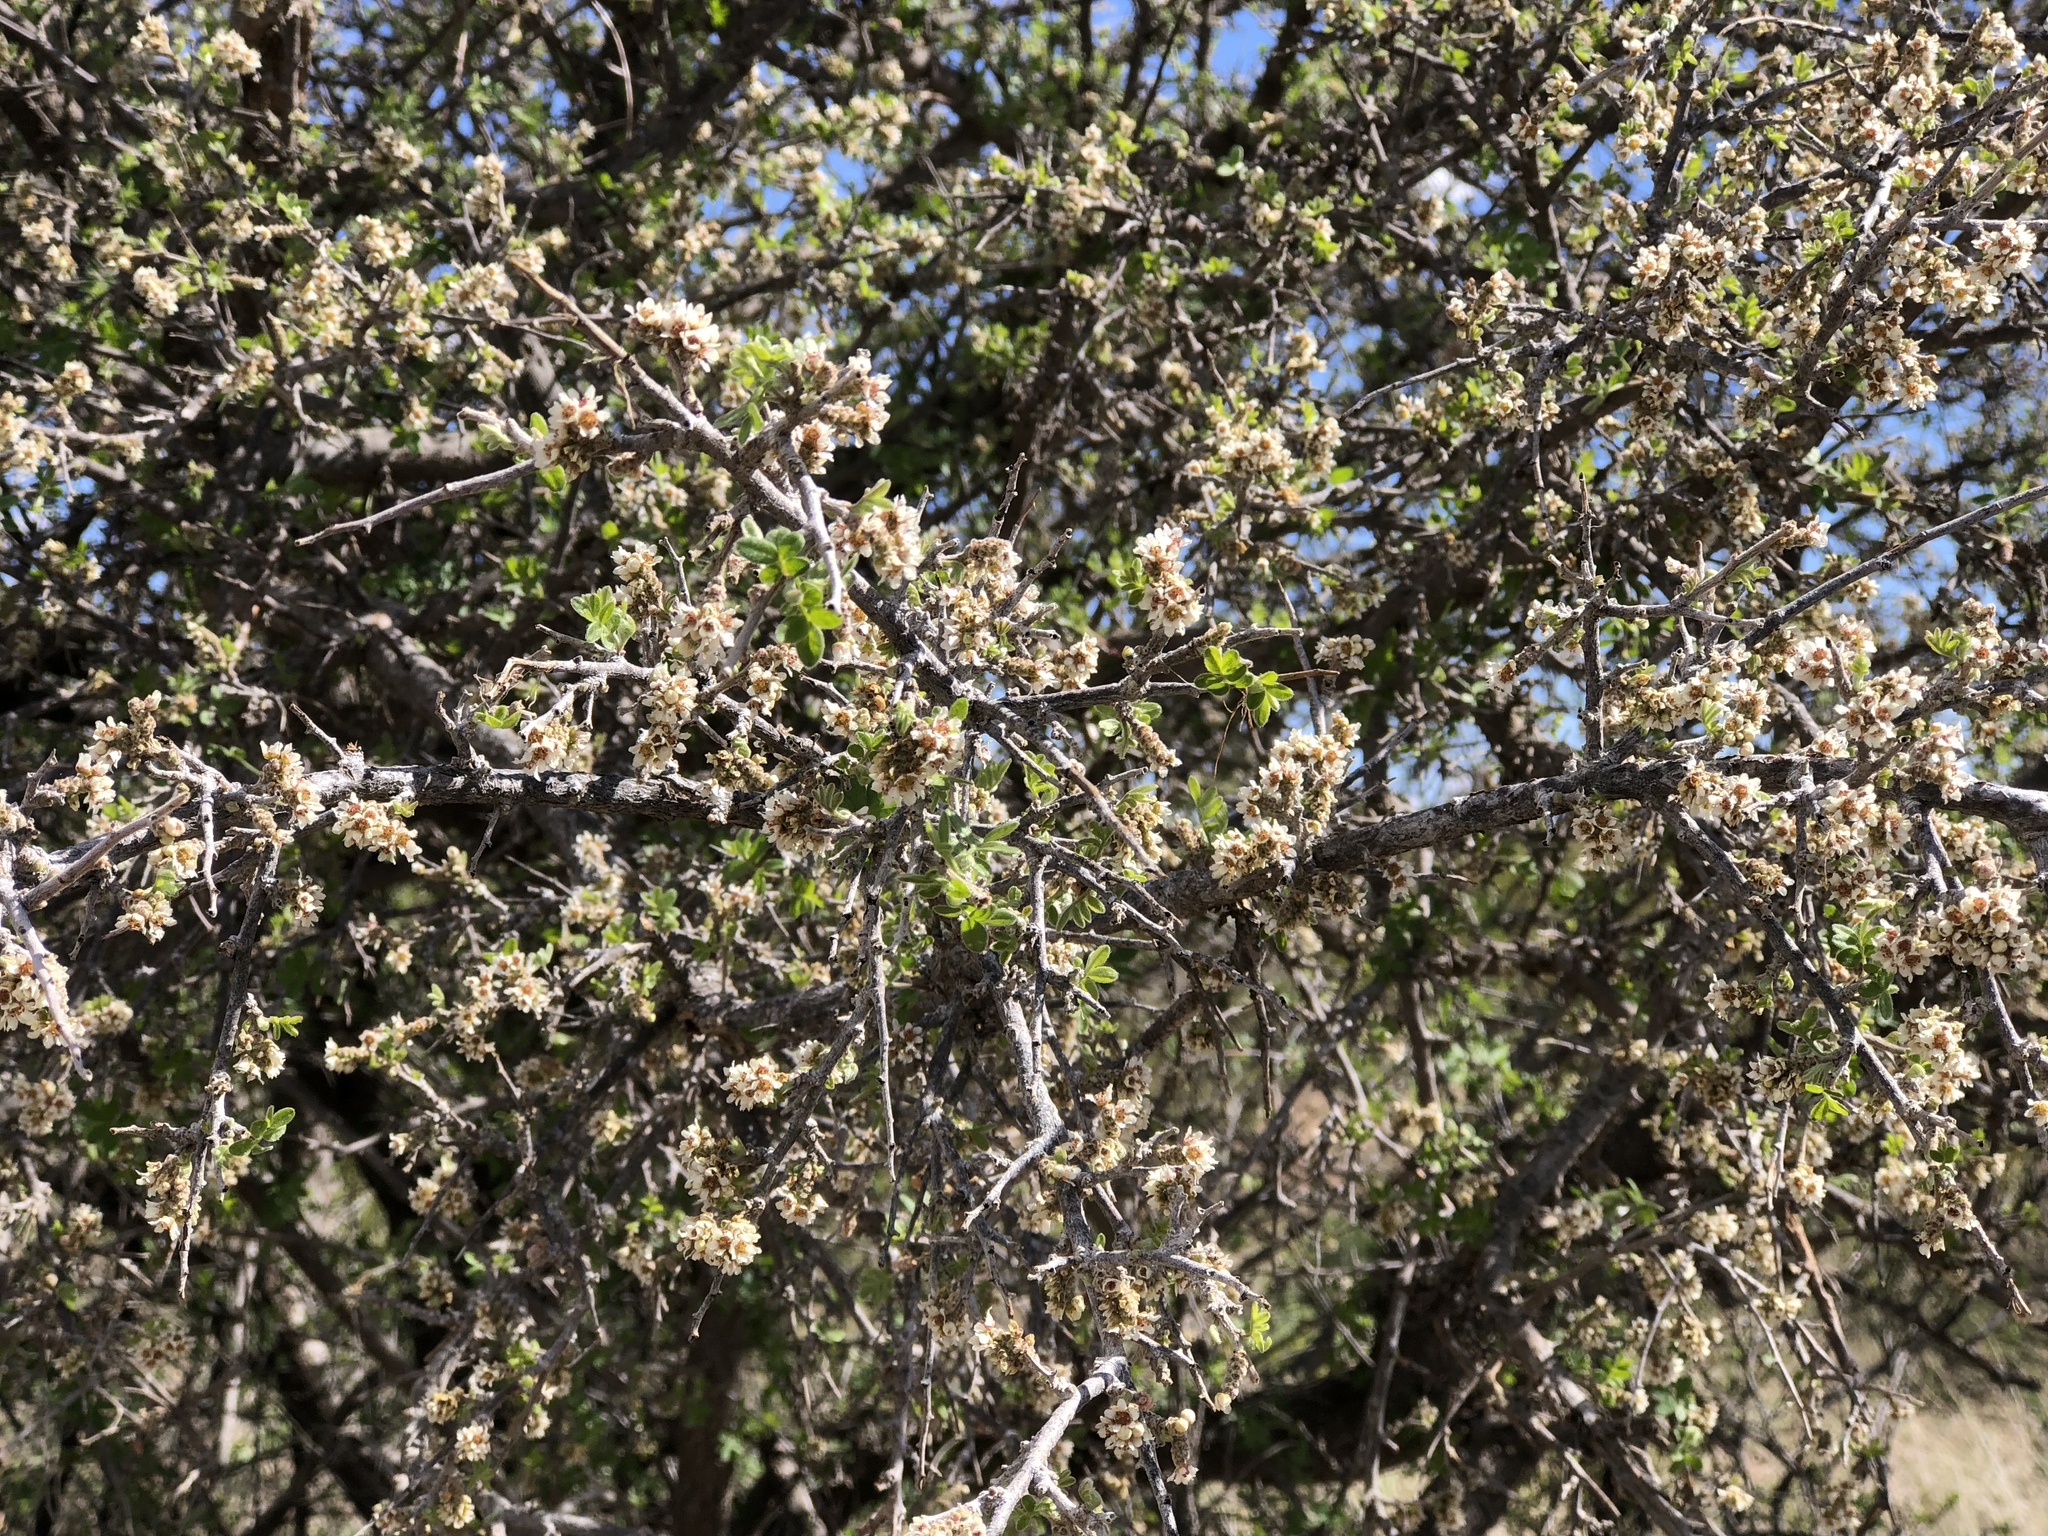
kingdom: Plantae
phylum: Tracheophyta
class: Magnoliopsida
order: Sapindales
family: Anacardiaceae
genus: Rhus
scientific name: Rhus microphylla
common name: Desert sumac
